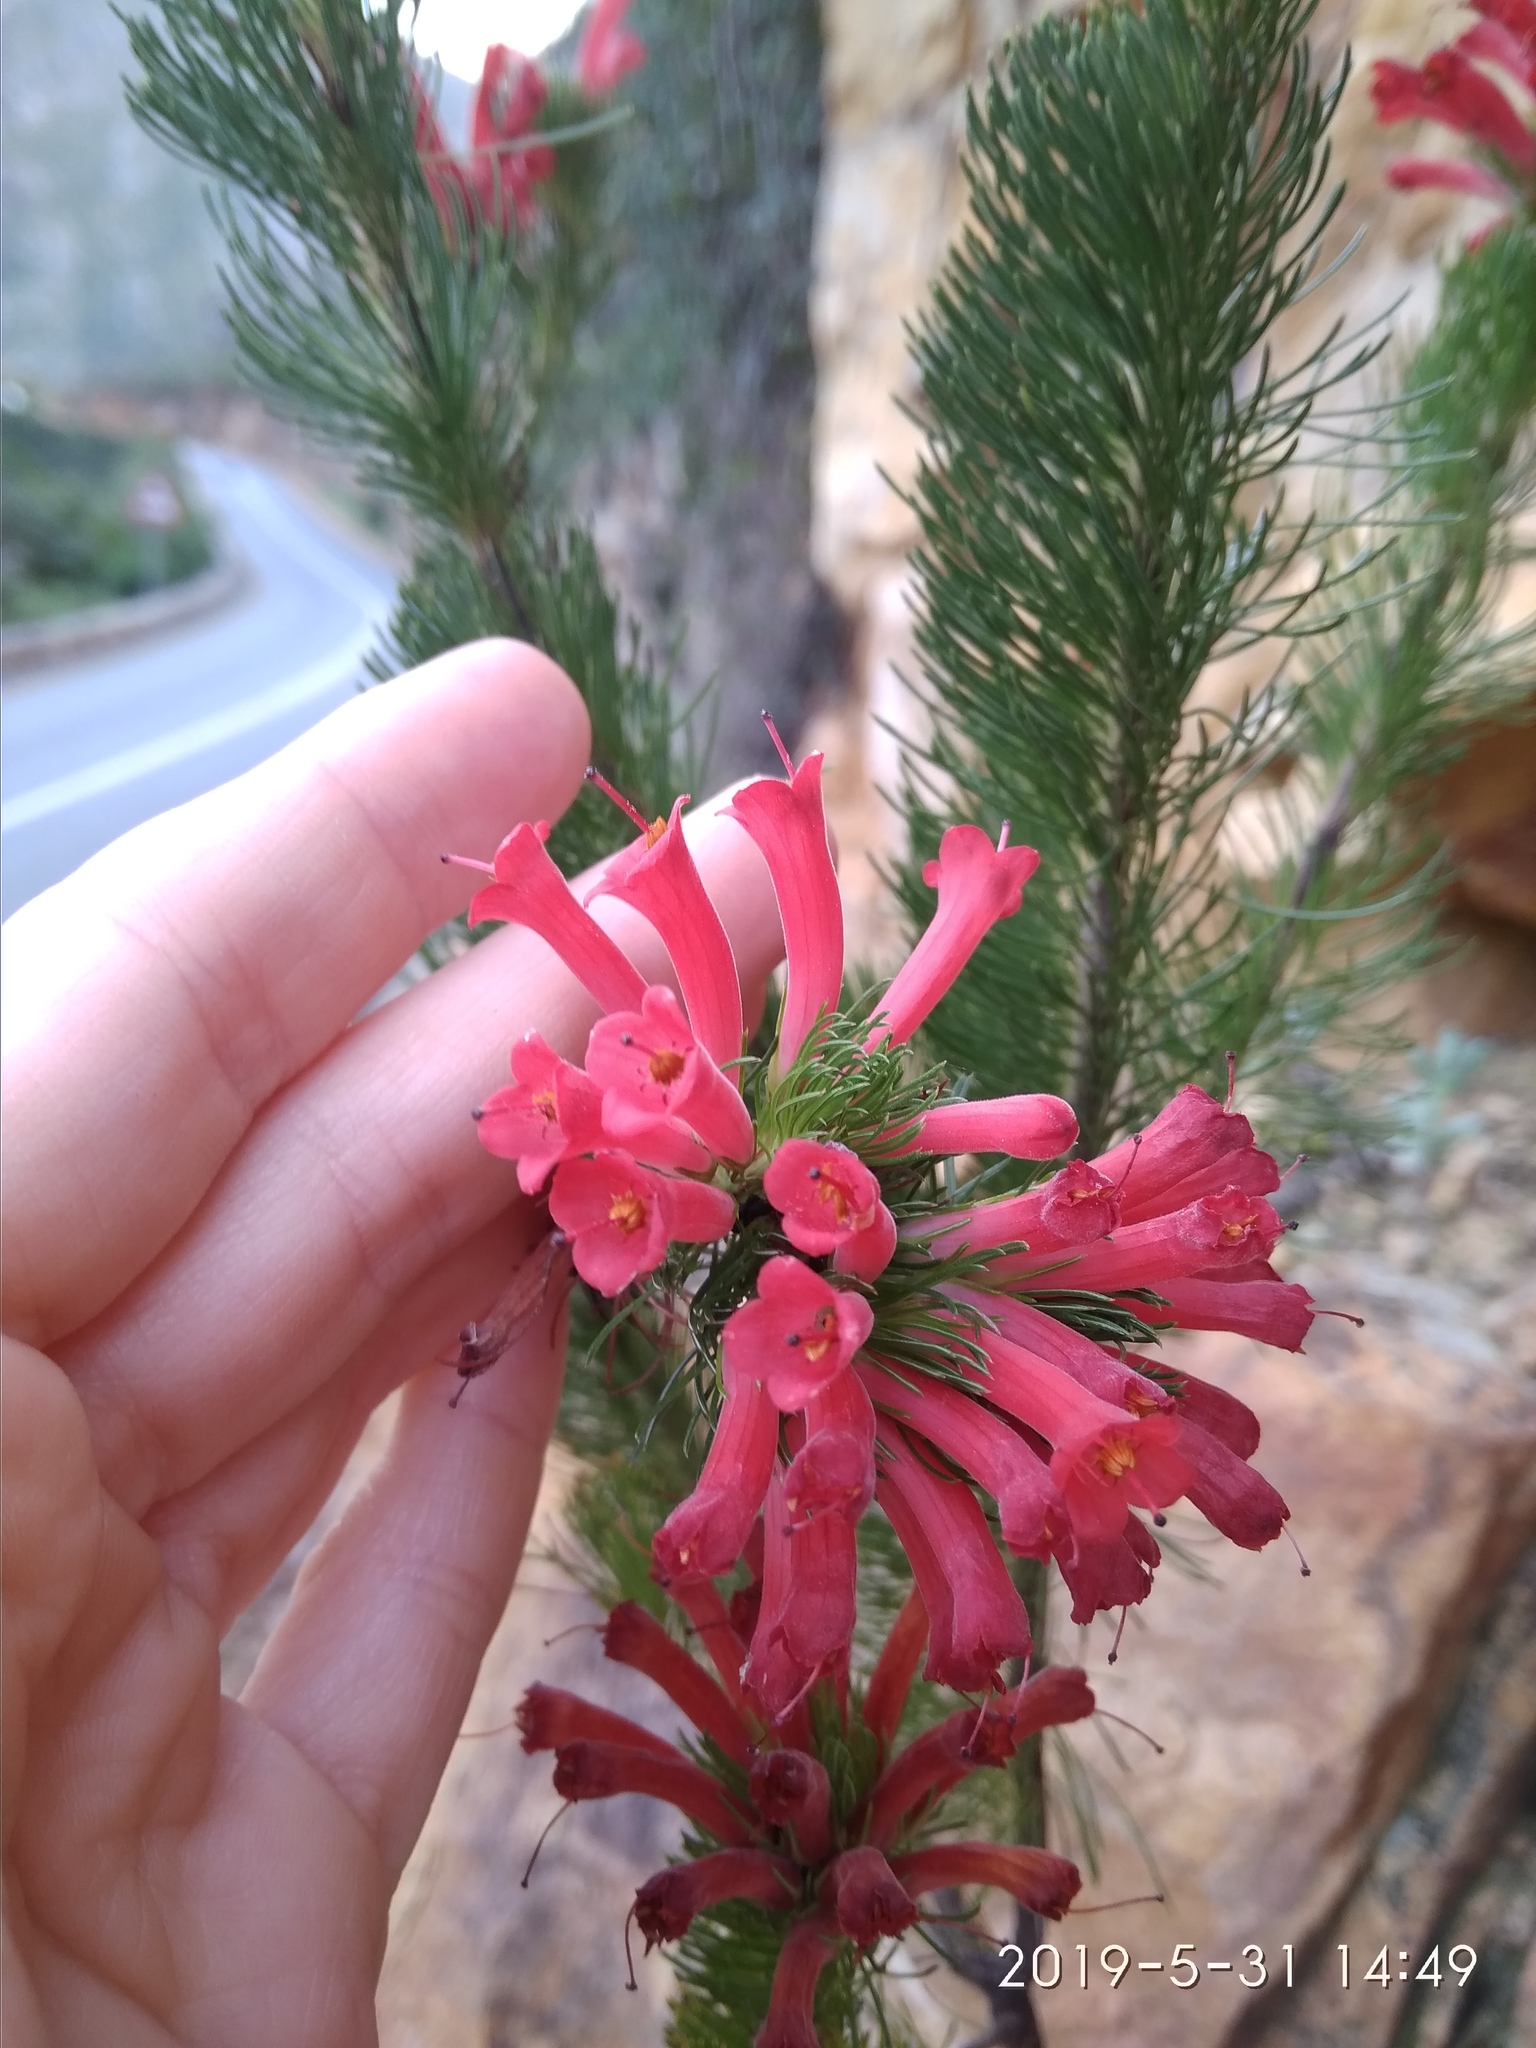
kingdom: Plantae
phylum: Tracheophyta
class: Magnoliopsida
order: Ericales
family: Ericaceae
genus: Erica
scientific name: Erica vestita
